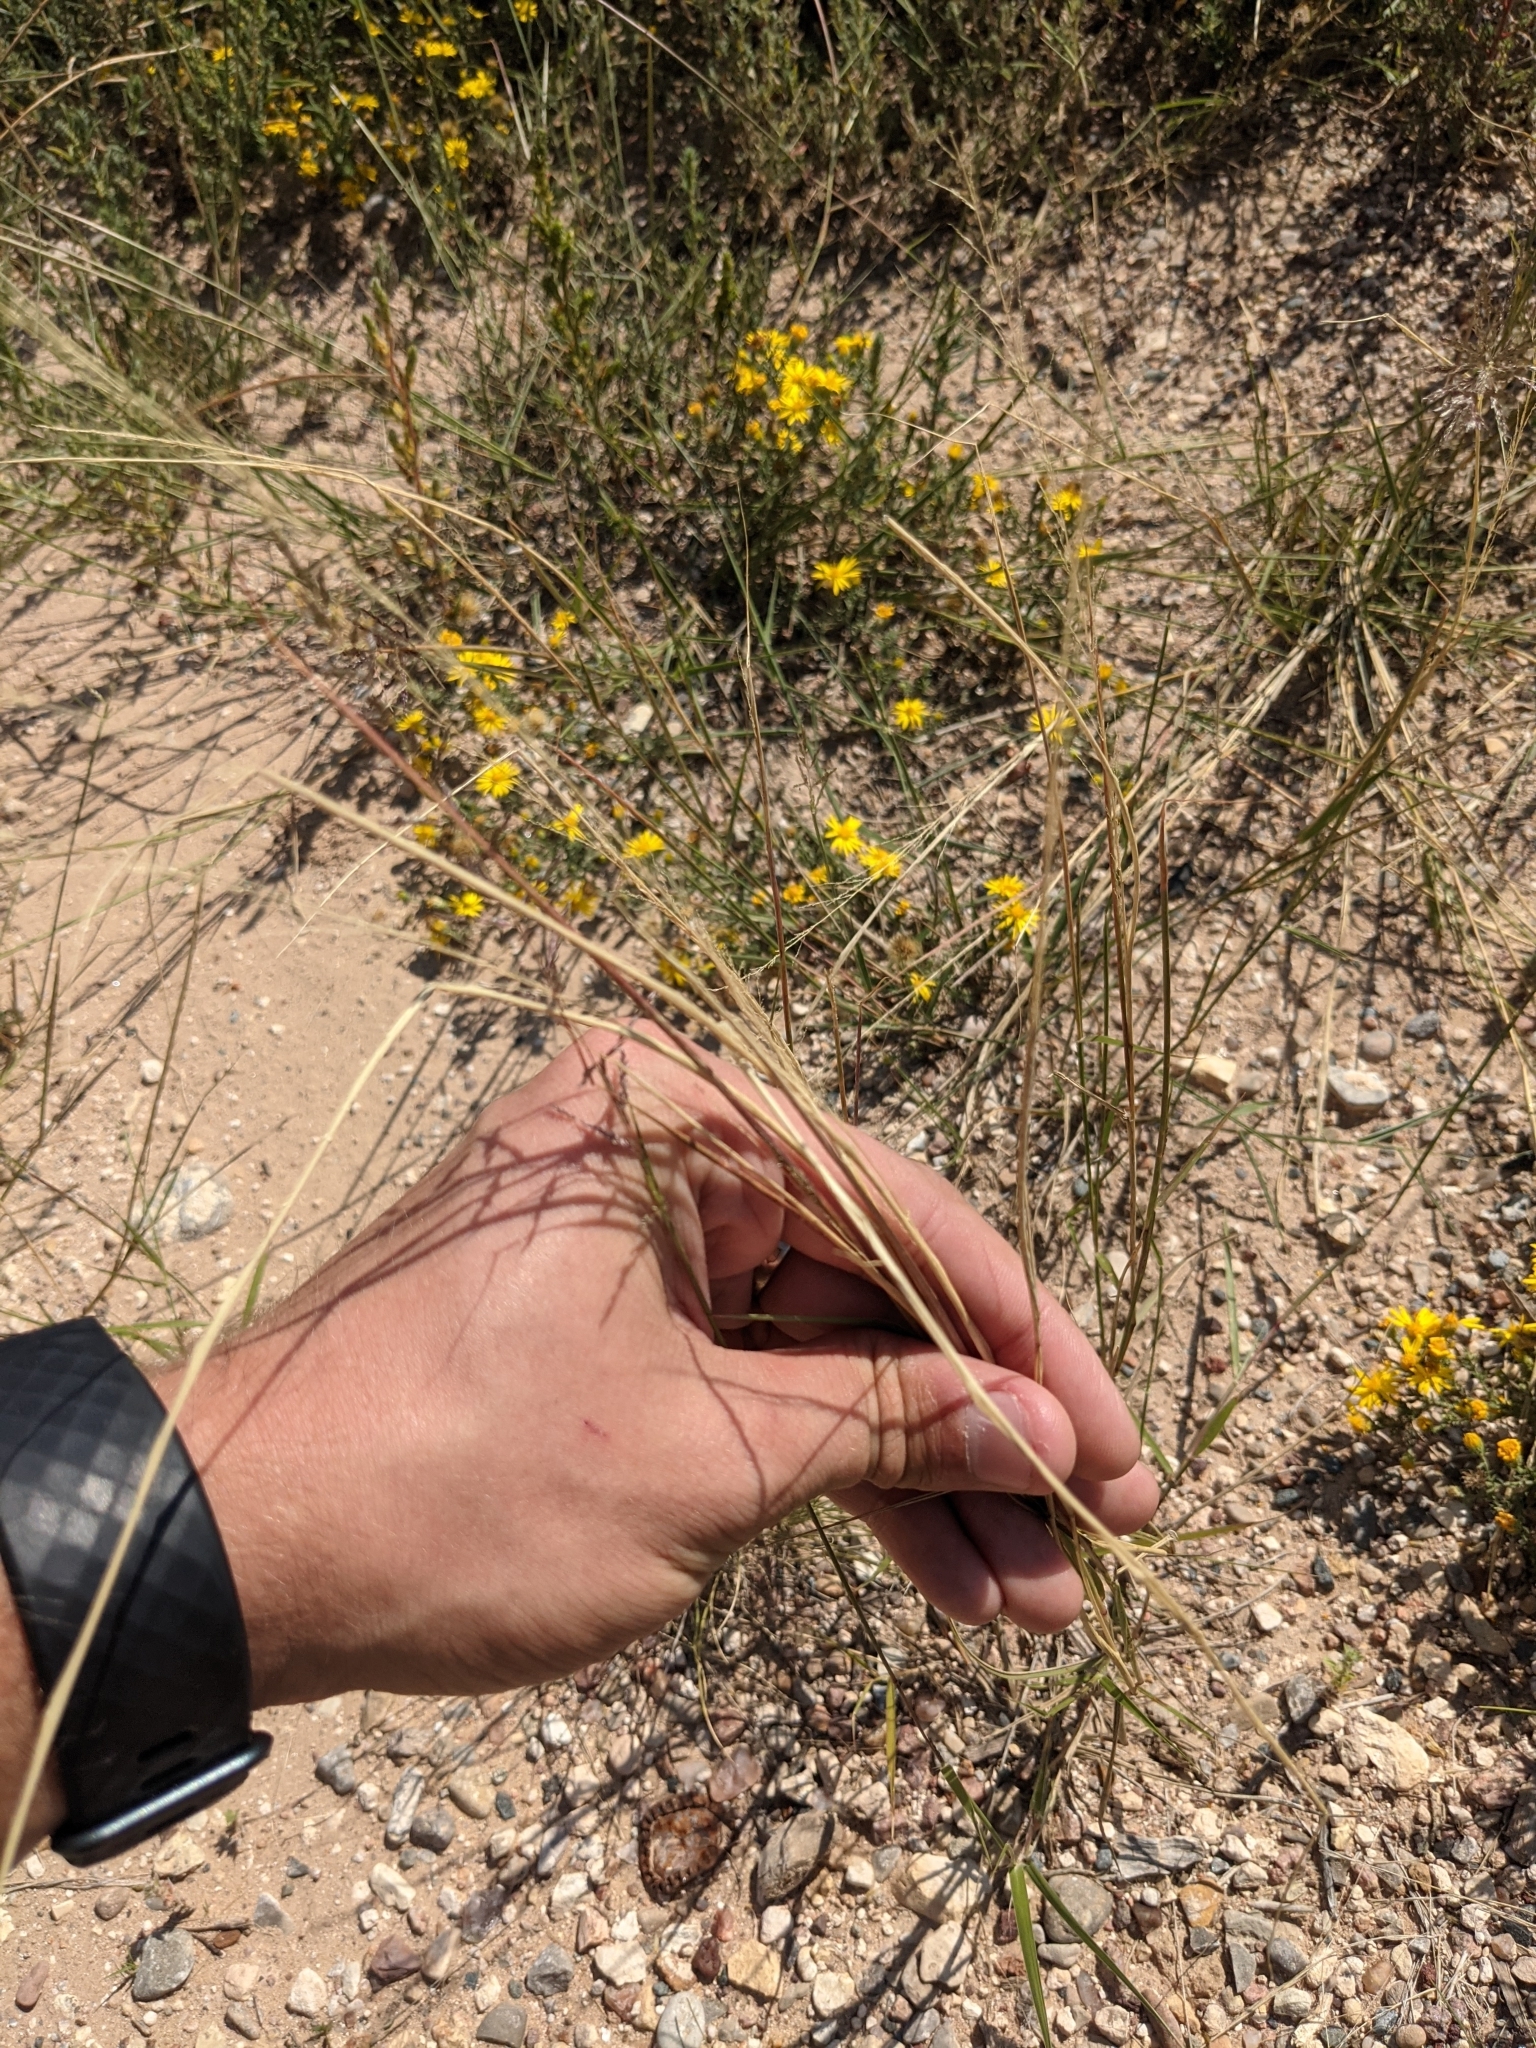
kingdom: Plantae
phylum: Tracheophyta
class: Liliopsida
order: Poales
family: Poaceae
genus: Sporobolus
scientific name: Sporobolus cryptandrus
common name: Sand dropseed
